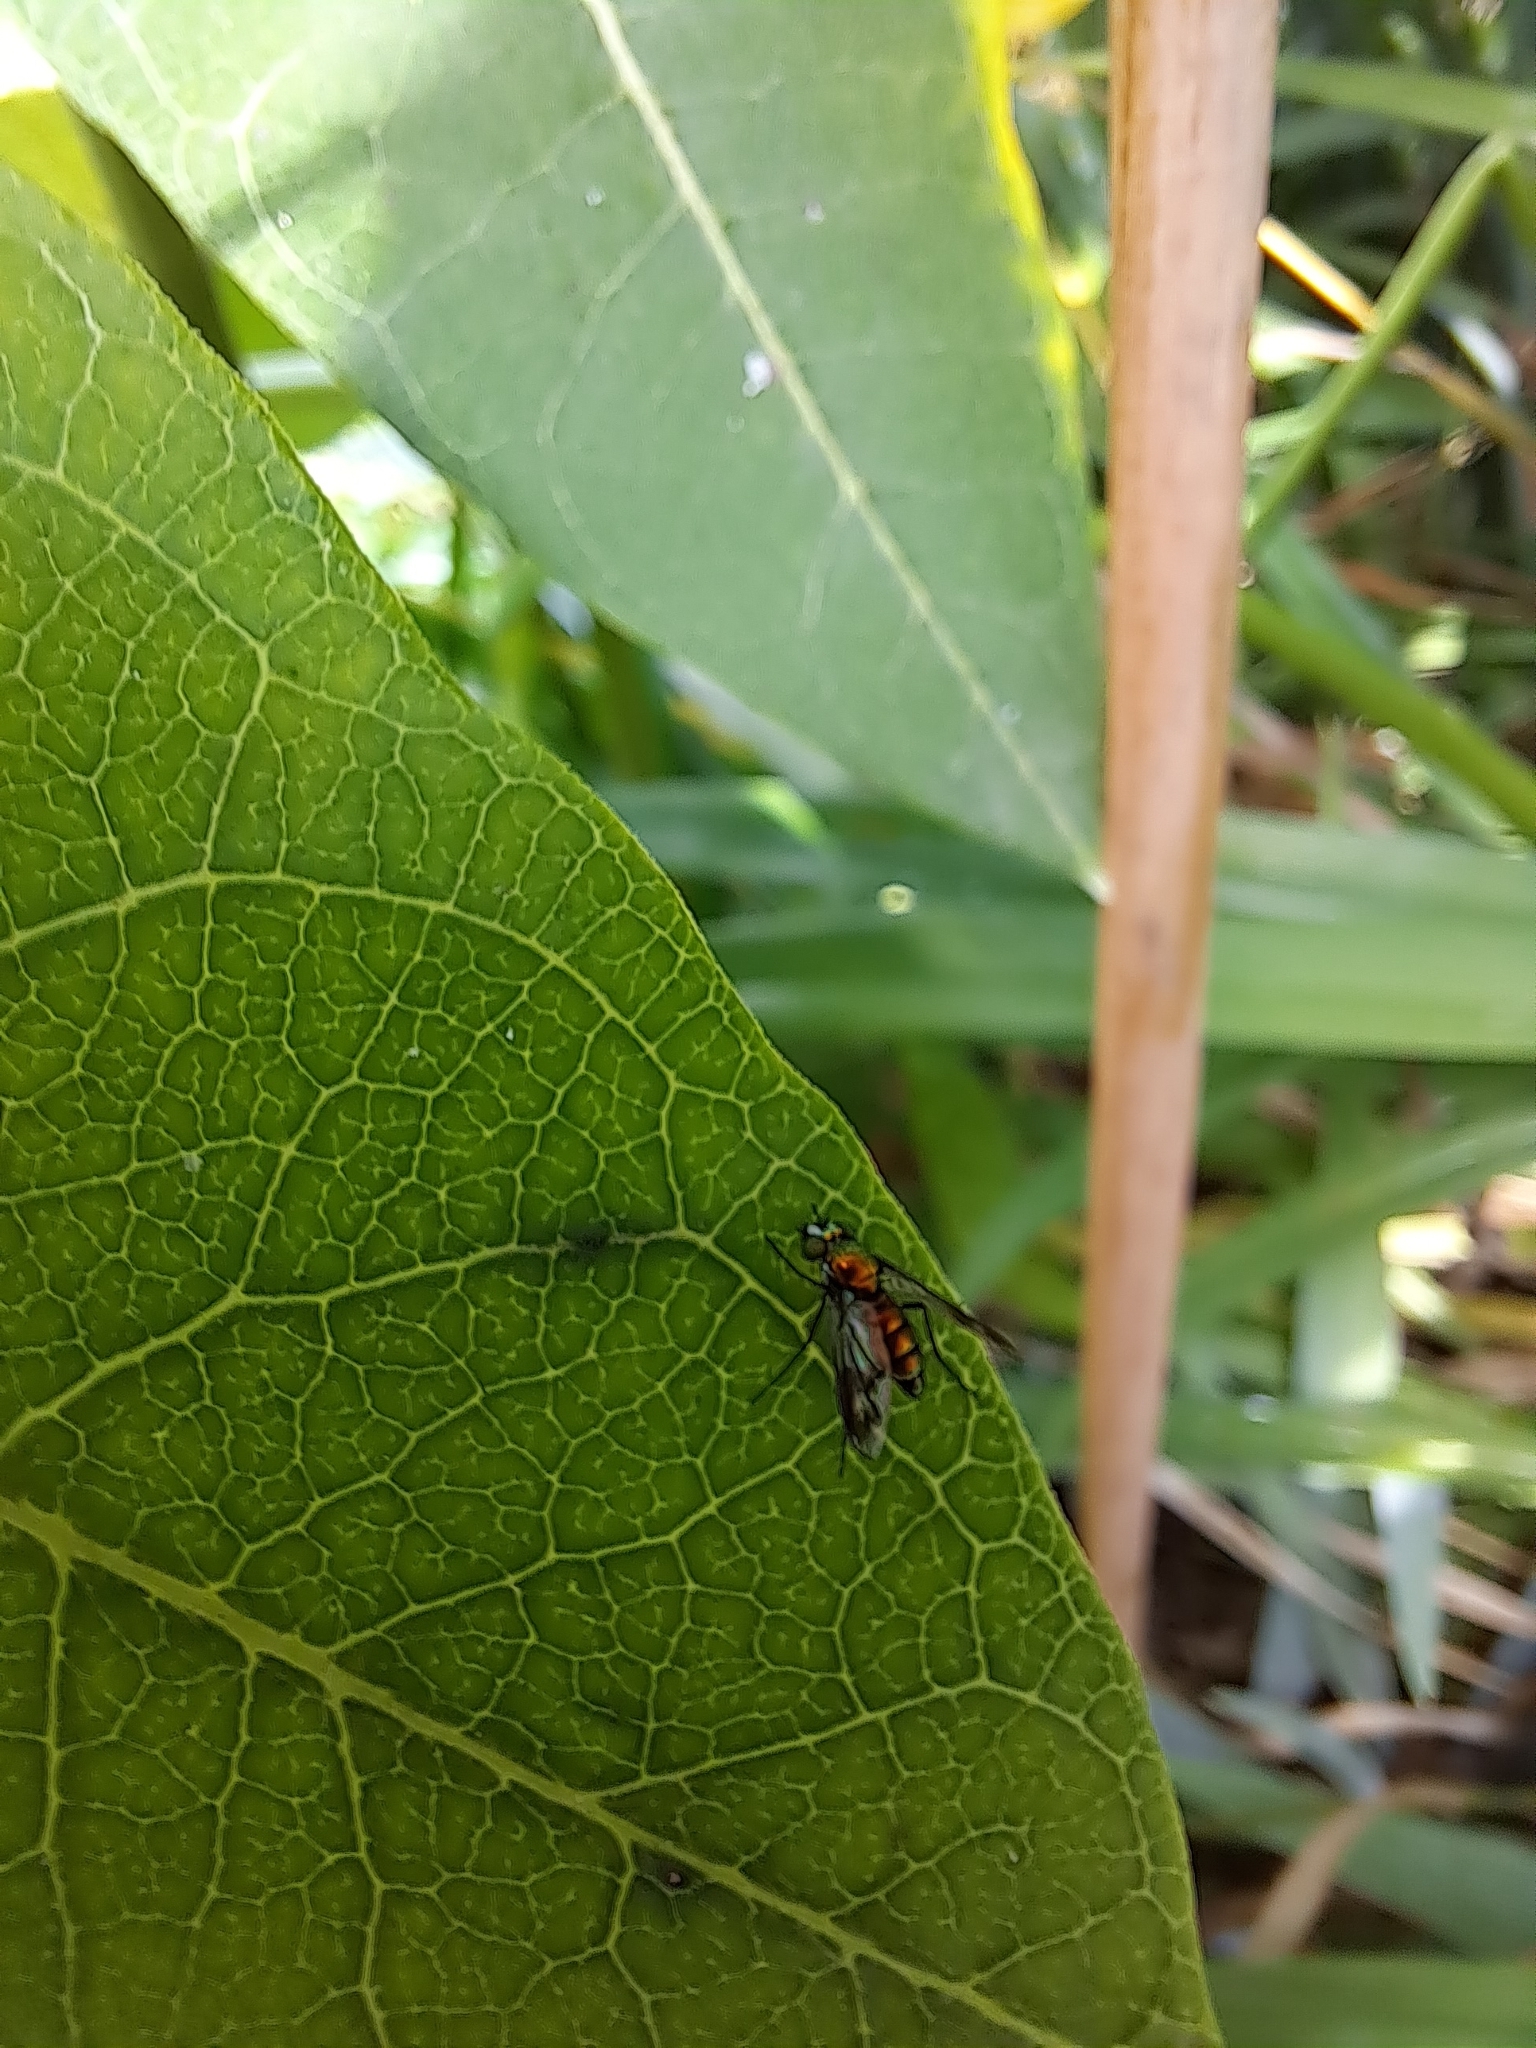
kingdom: Animalia
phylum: Arthropoda
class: Insecta
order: Diptera
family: Dolichopodidae
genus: Condylostylus
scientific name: Condylostylus patibulatus
